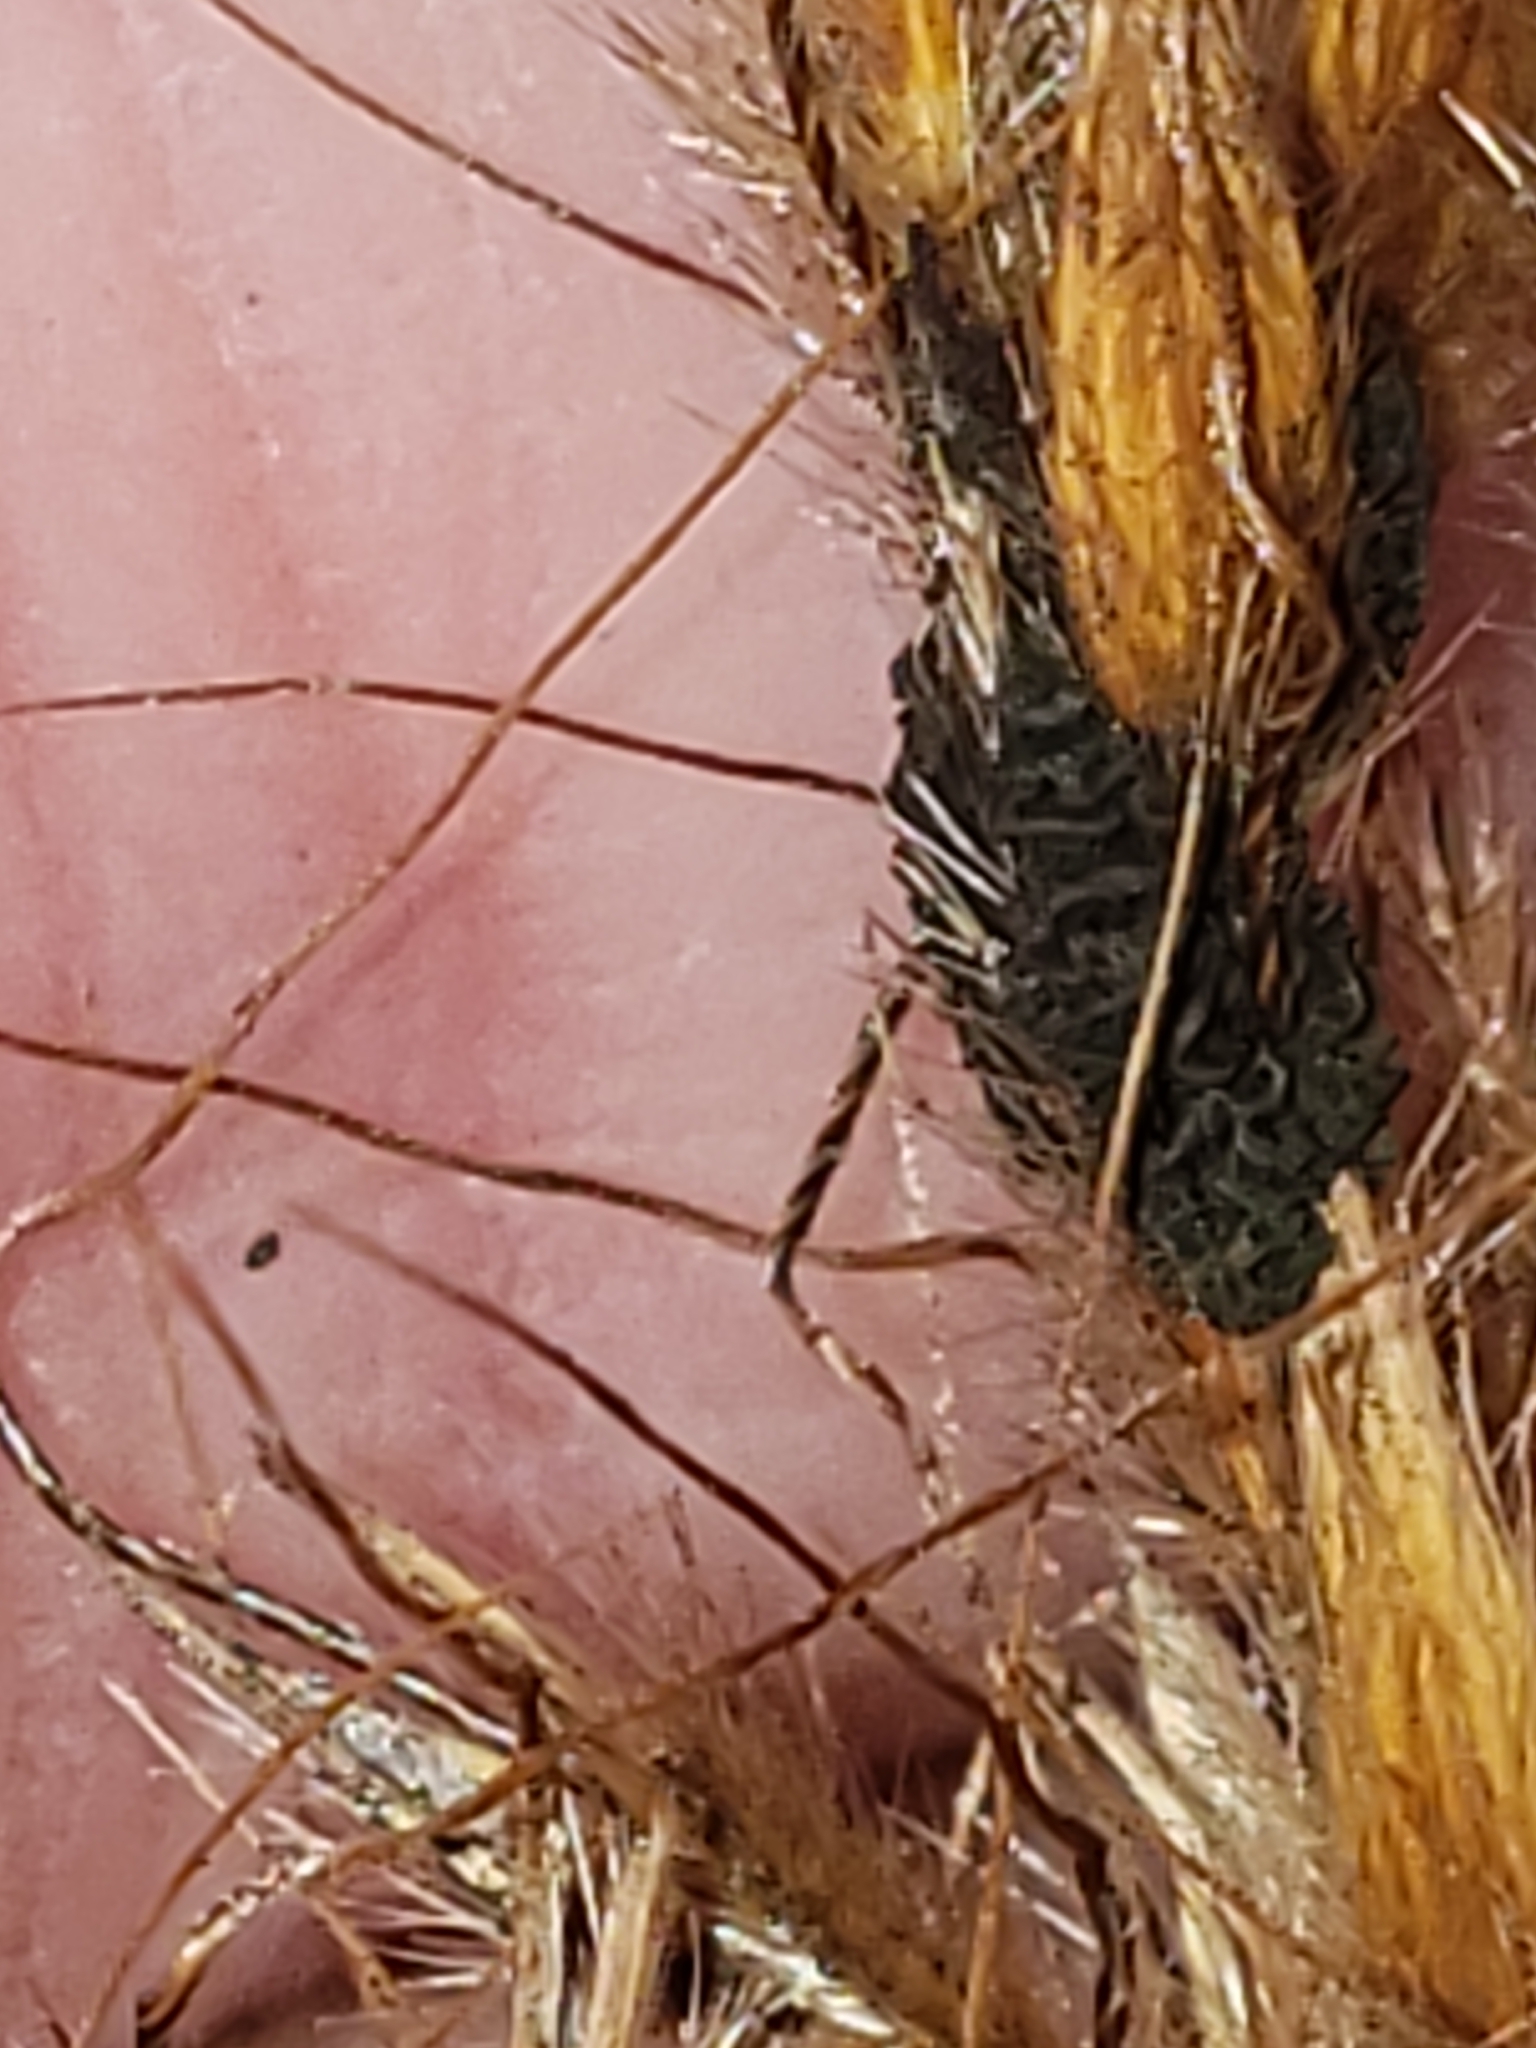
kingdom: Fungi
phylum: Ascomycota
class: Dothideomycetes
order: Pleosporales
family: Didymellaceae
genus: Epicoccum
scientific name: Epicoccum andropogonis
